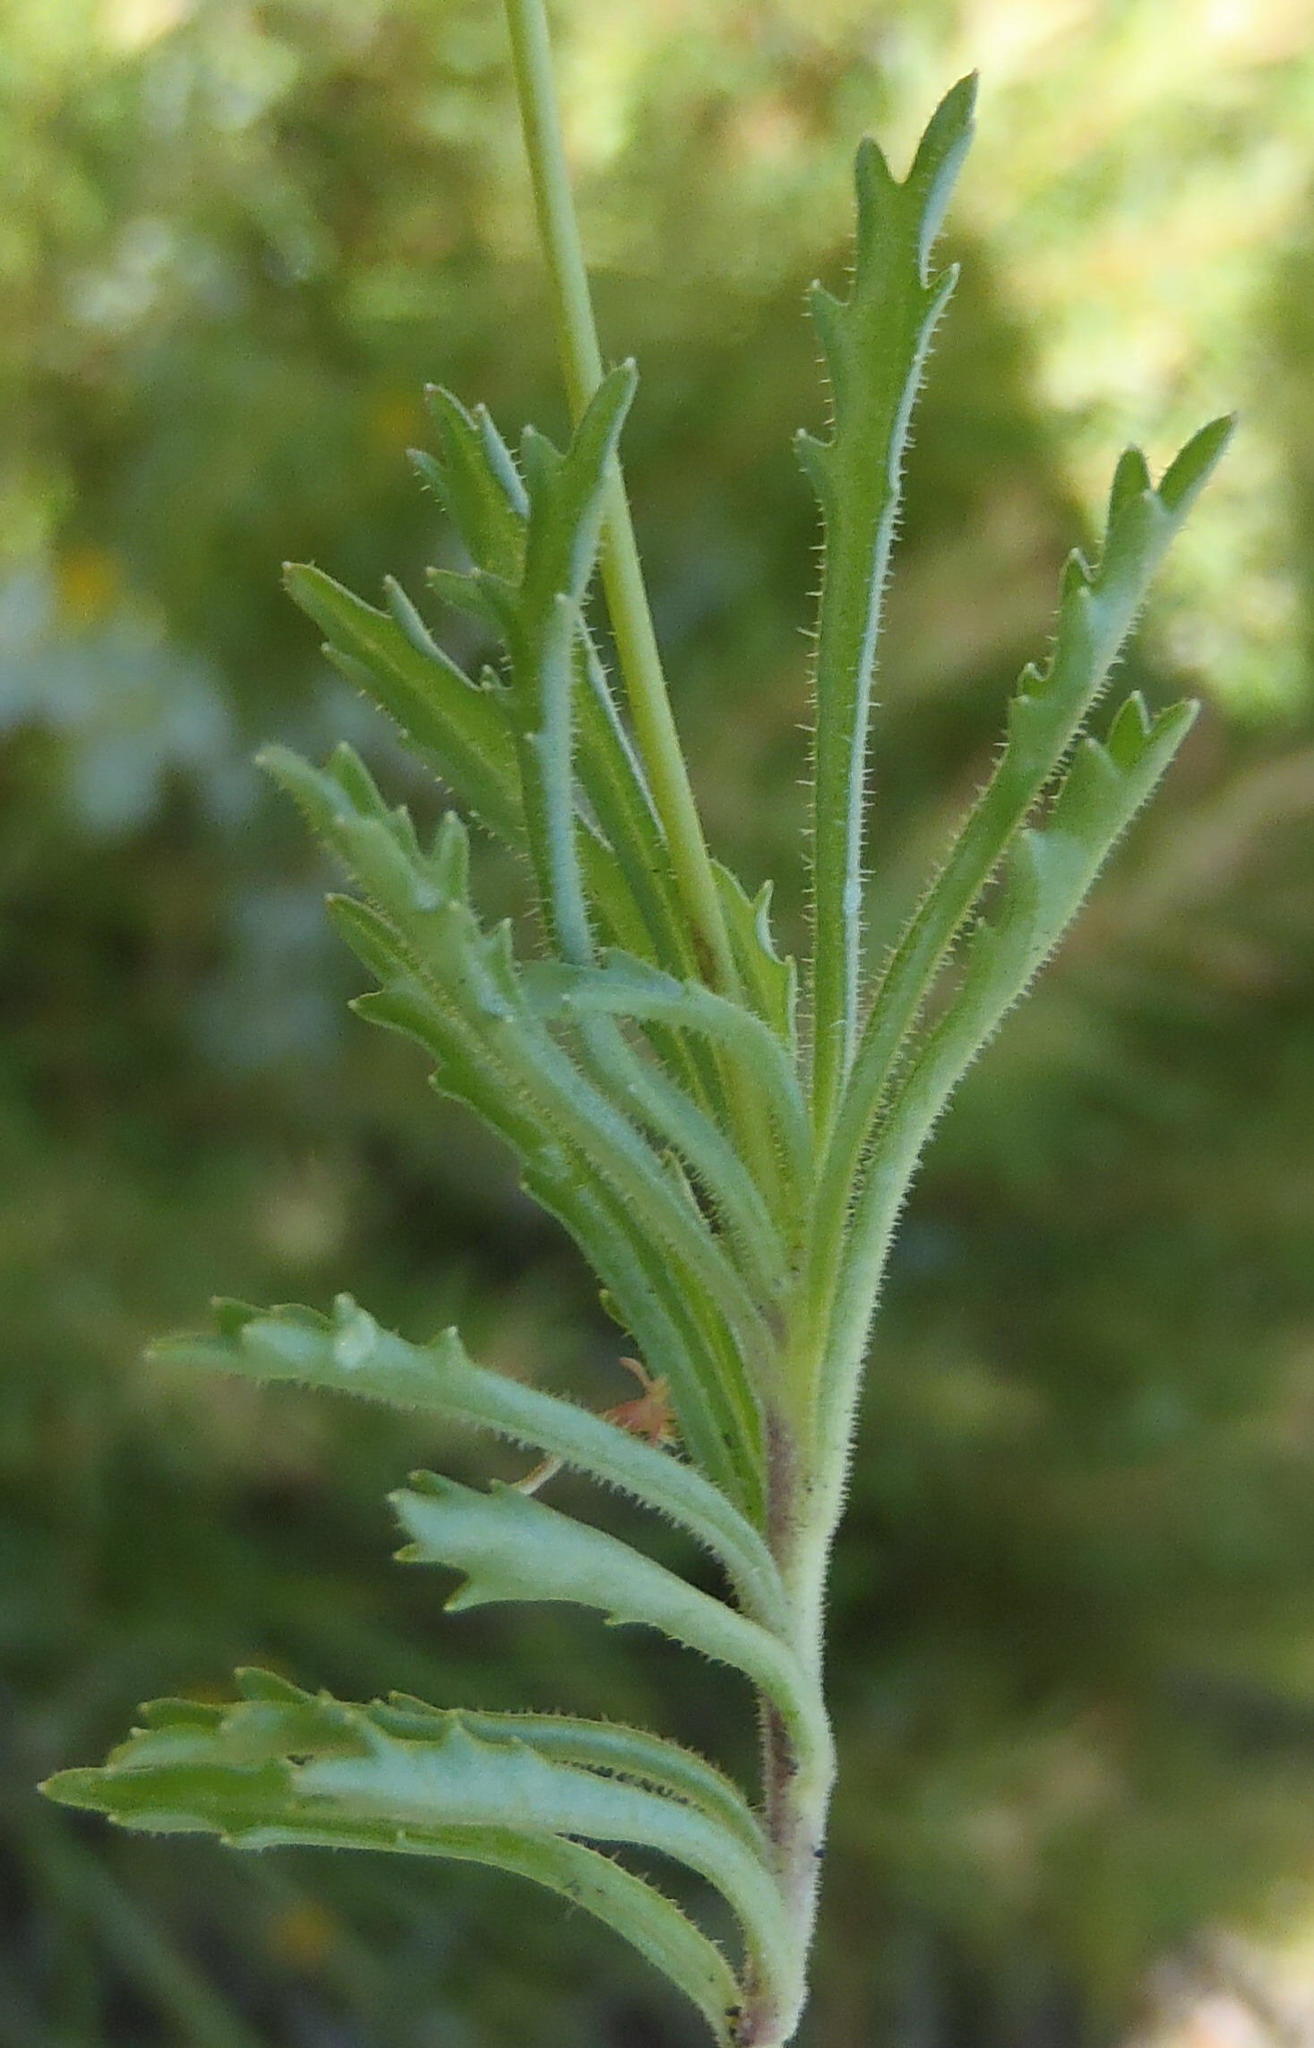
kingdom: Plantae
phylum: Tracheophyta
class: Magnoliopsida
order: Asterales
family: Campanulaceae
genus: Lobelia
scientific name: Lobelia tomentosa
